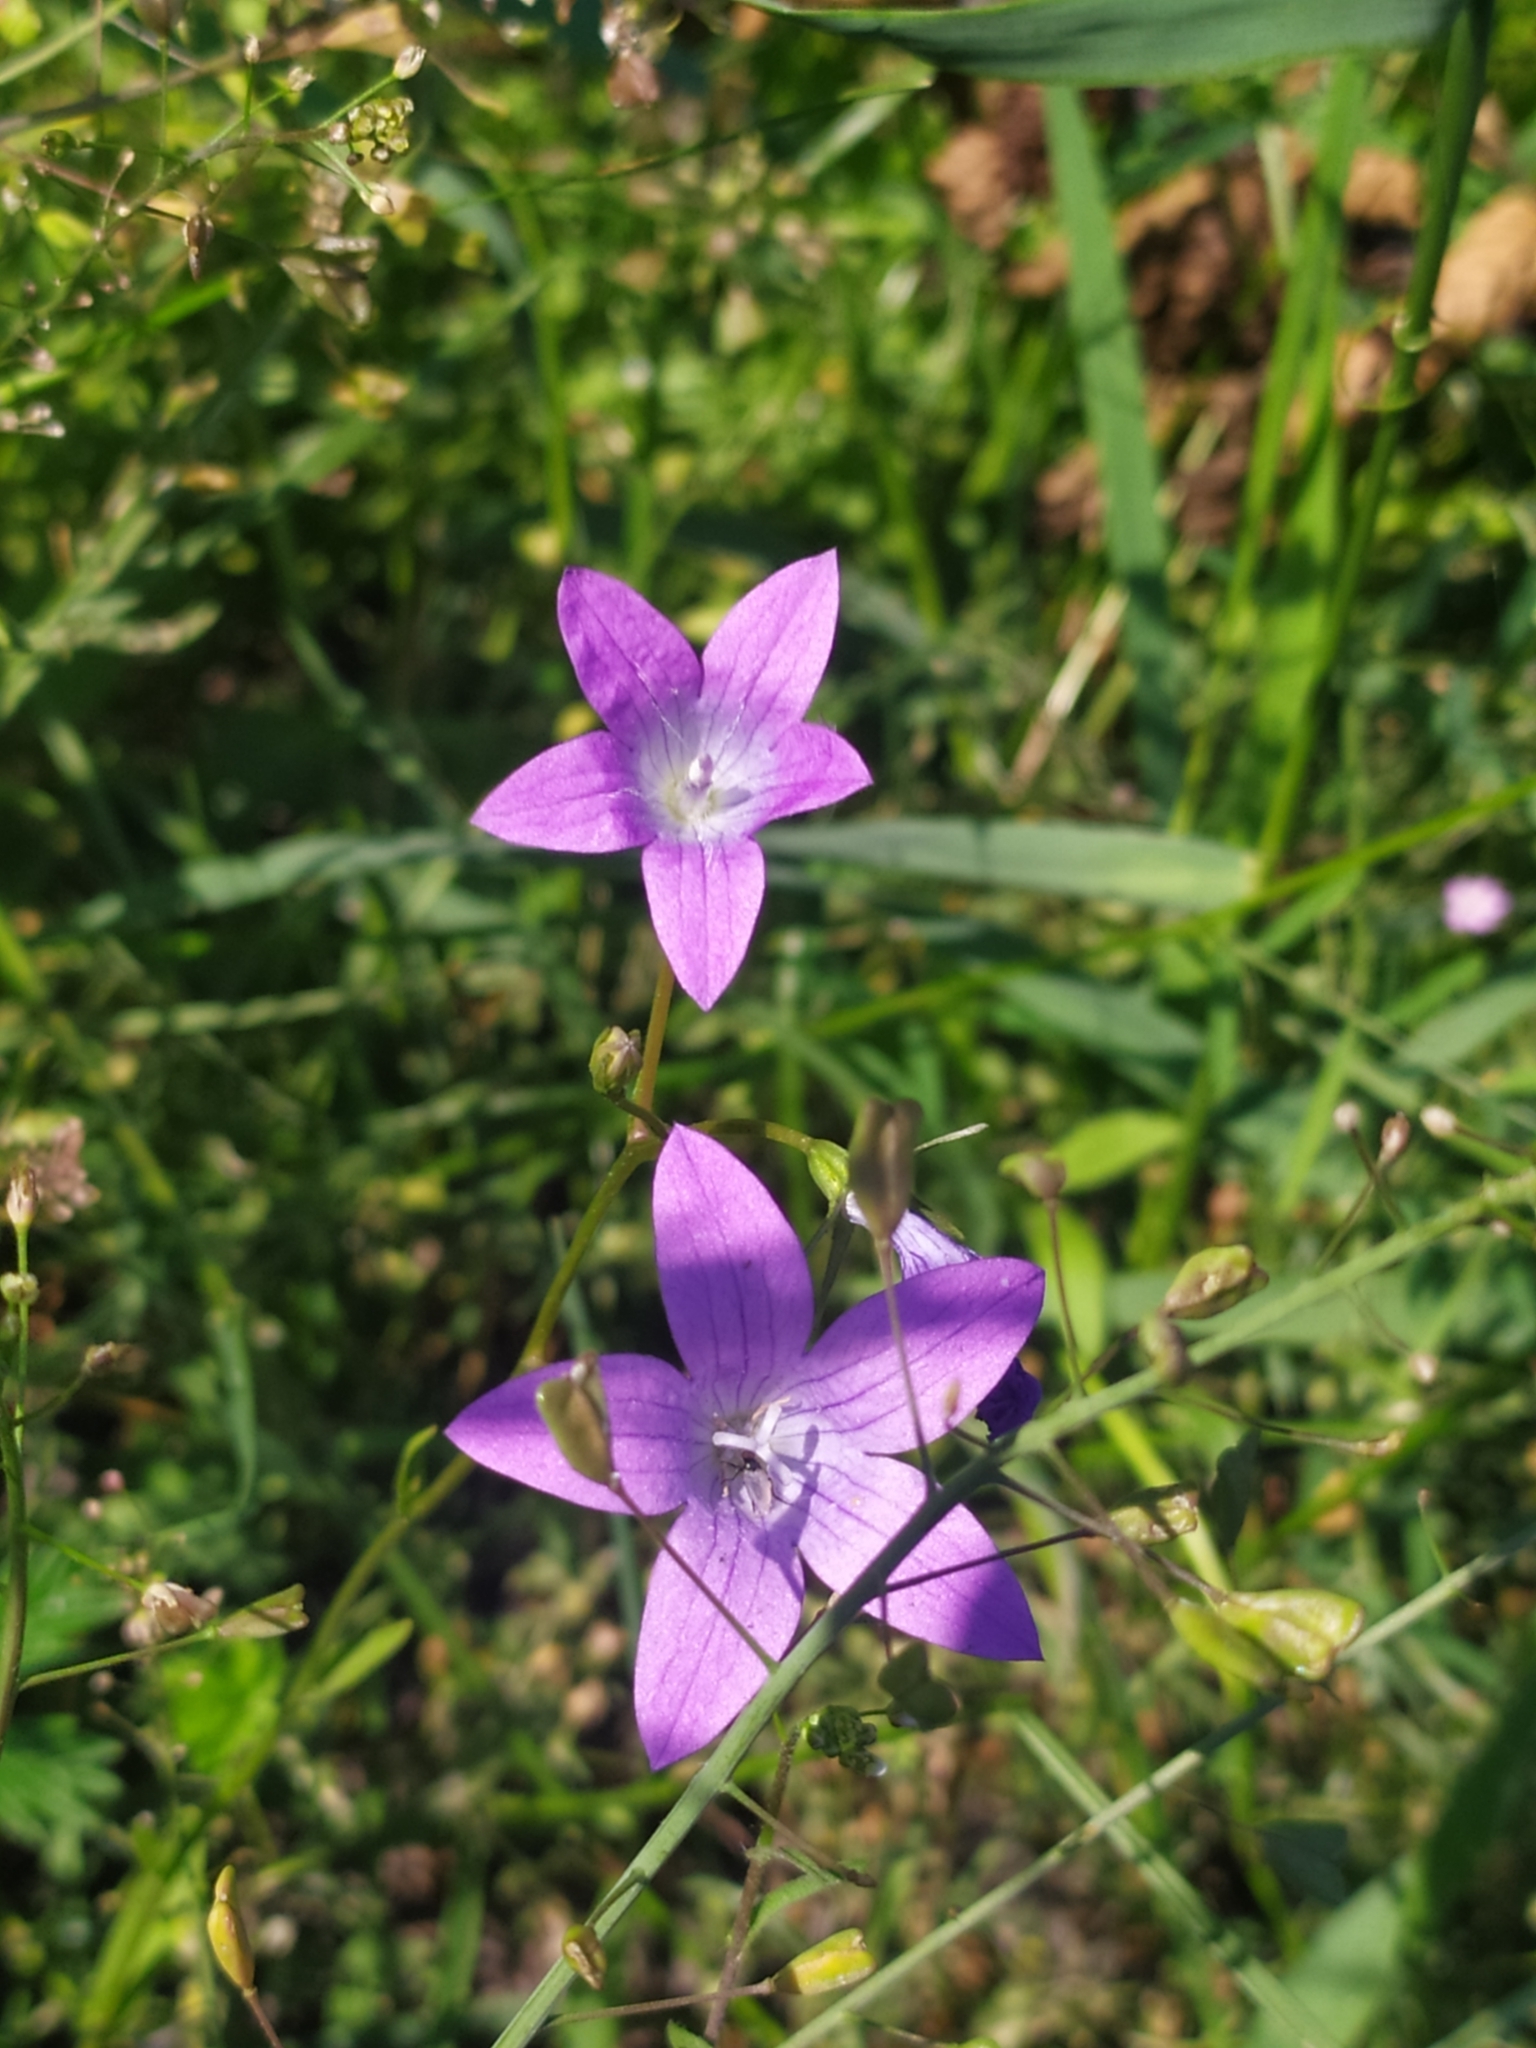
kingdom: Plantae
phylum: Tracheophyta
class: Magnoliopsida
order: Asterales
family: Campanulaceae
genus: Campanula
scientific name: Campanula patula
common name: Spreading bellflower
